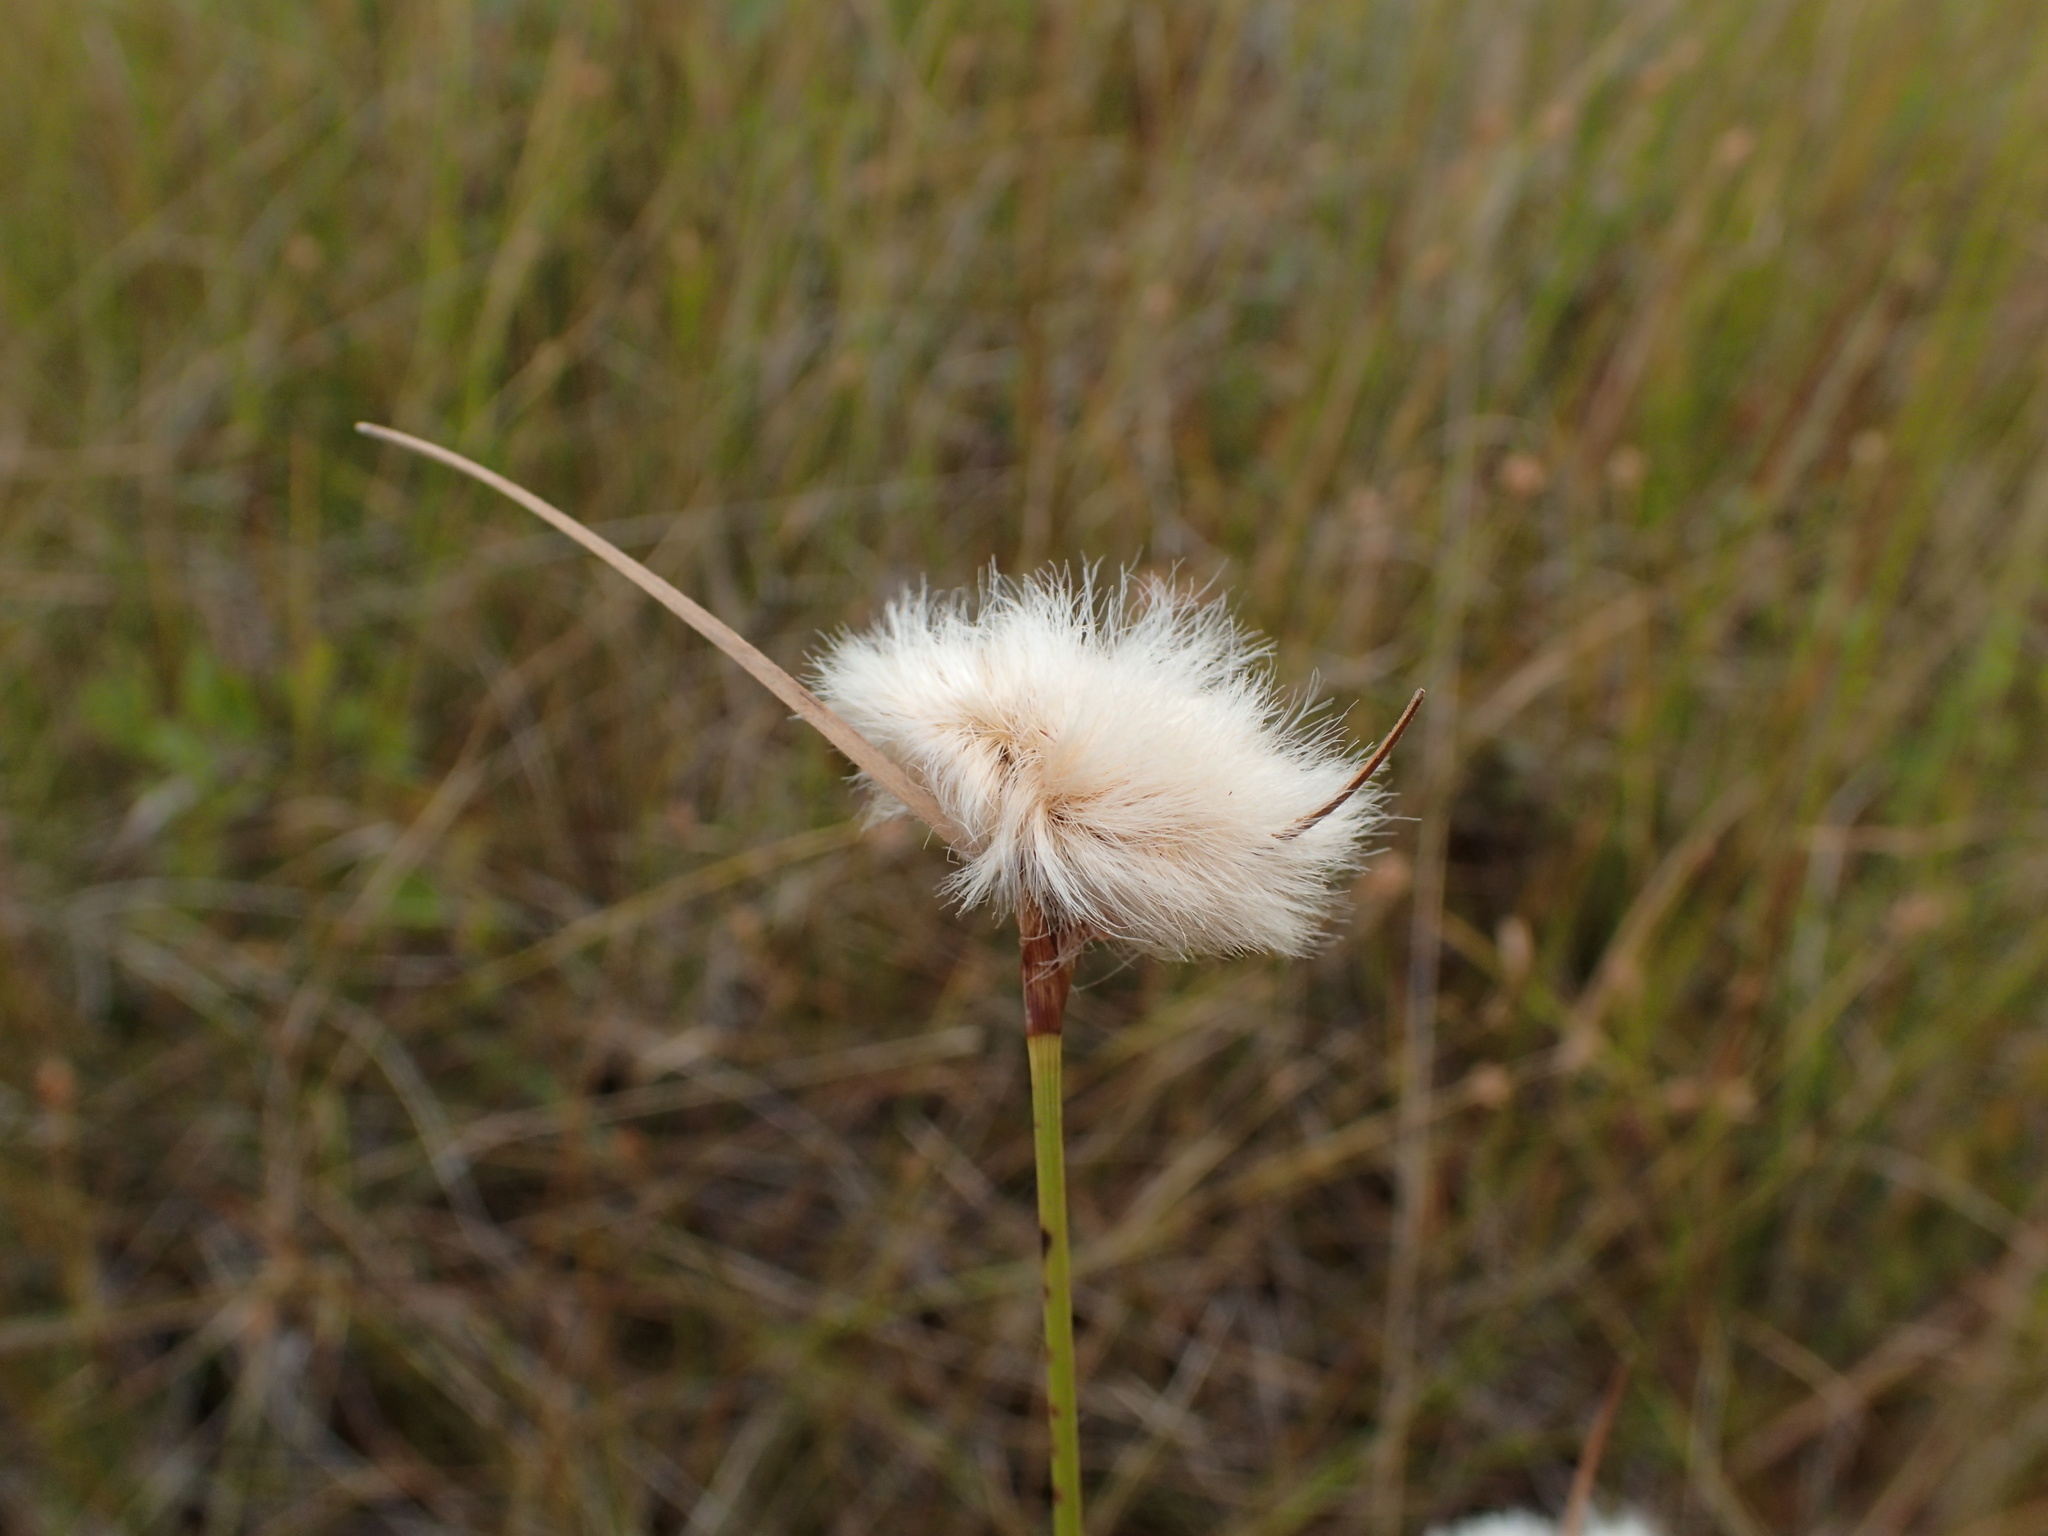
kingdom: Plantae
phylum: Tracheophyta
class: Liliopsida
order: Poales
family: Cyperaceae
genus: Eriophorum
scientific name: Eriophorum virginicum
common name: Tawny cottongrass
